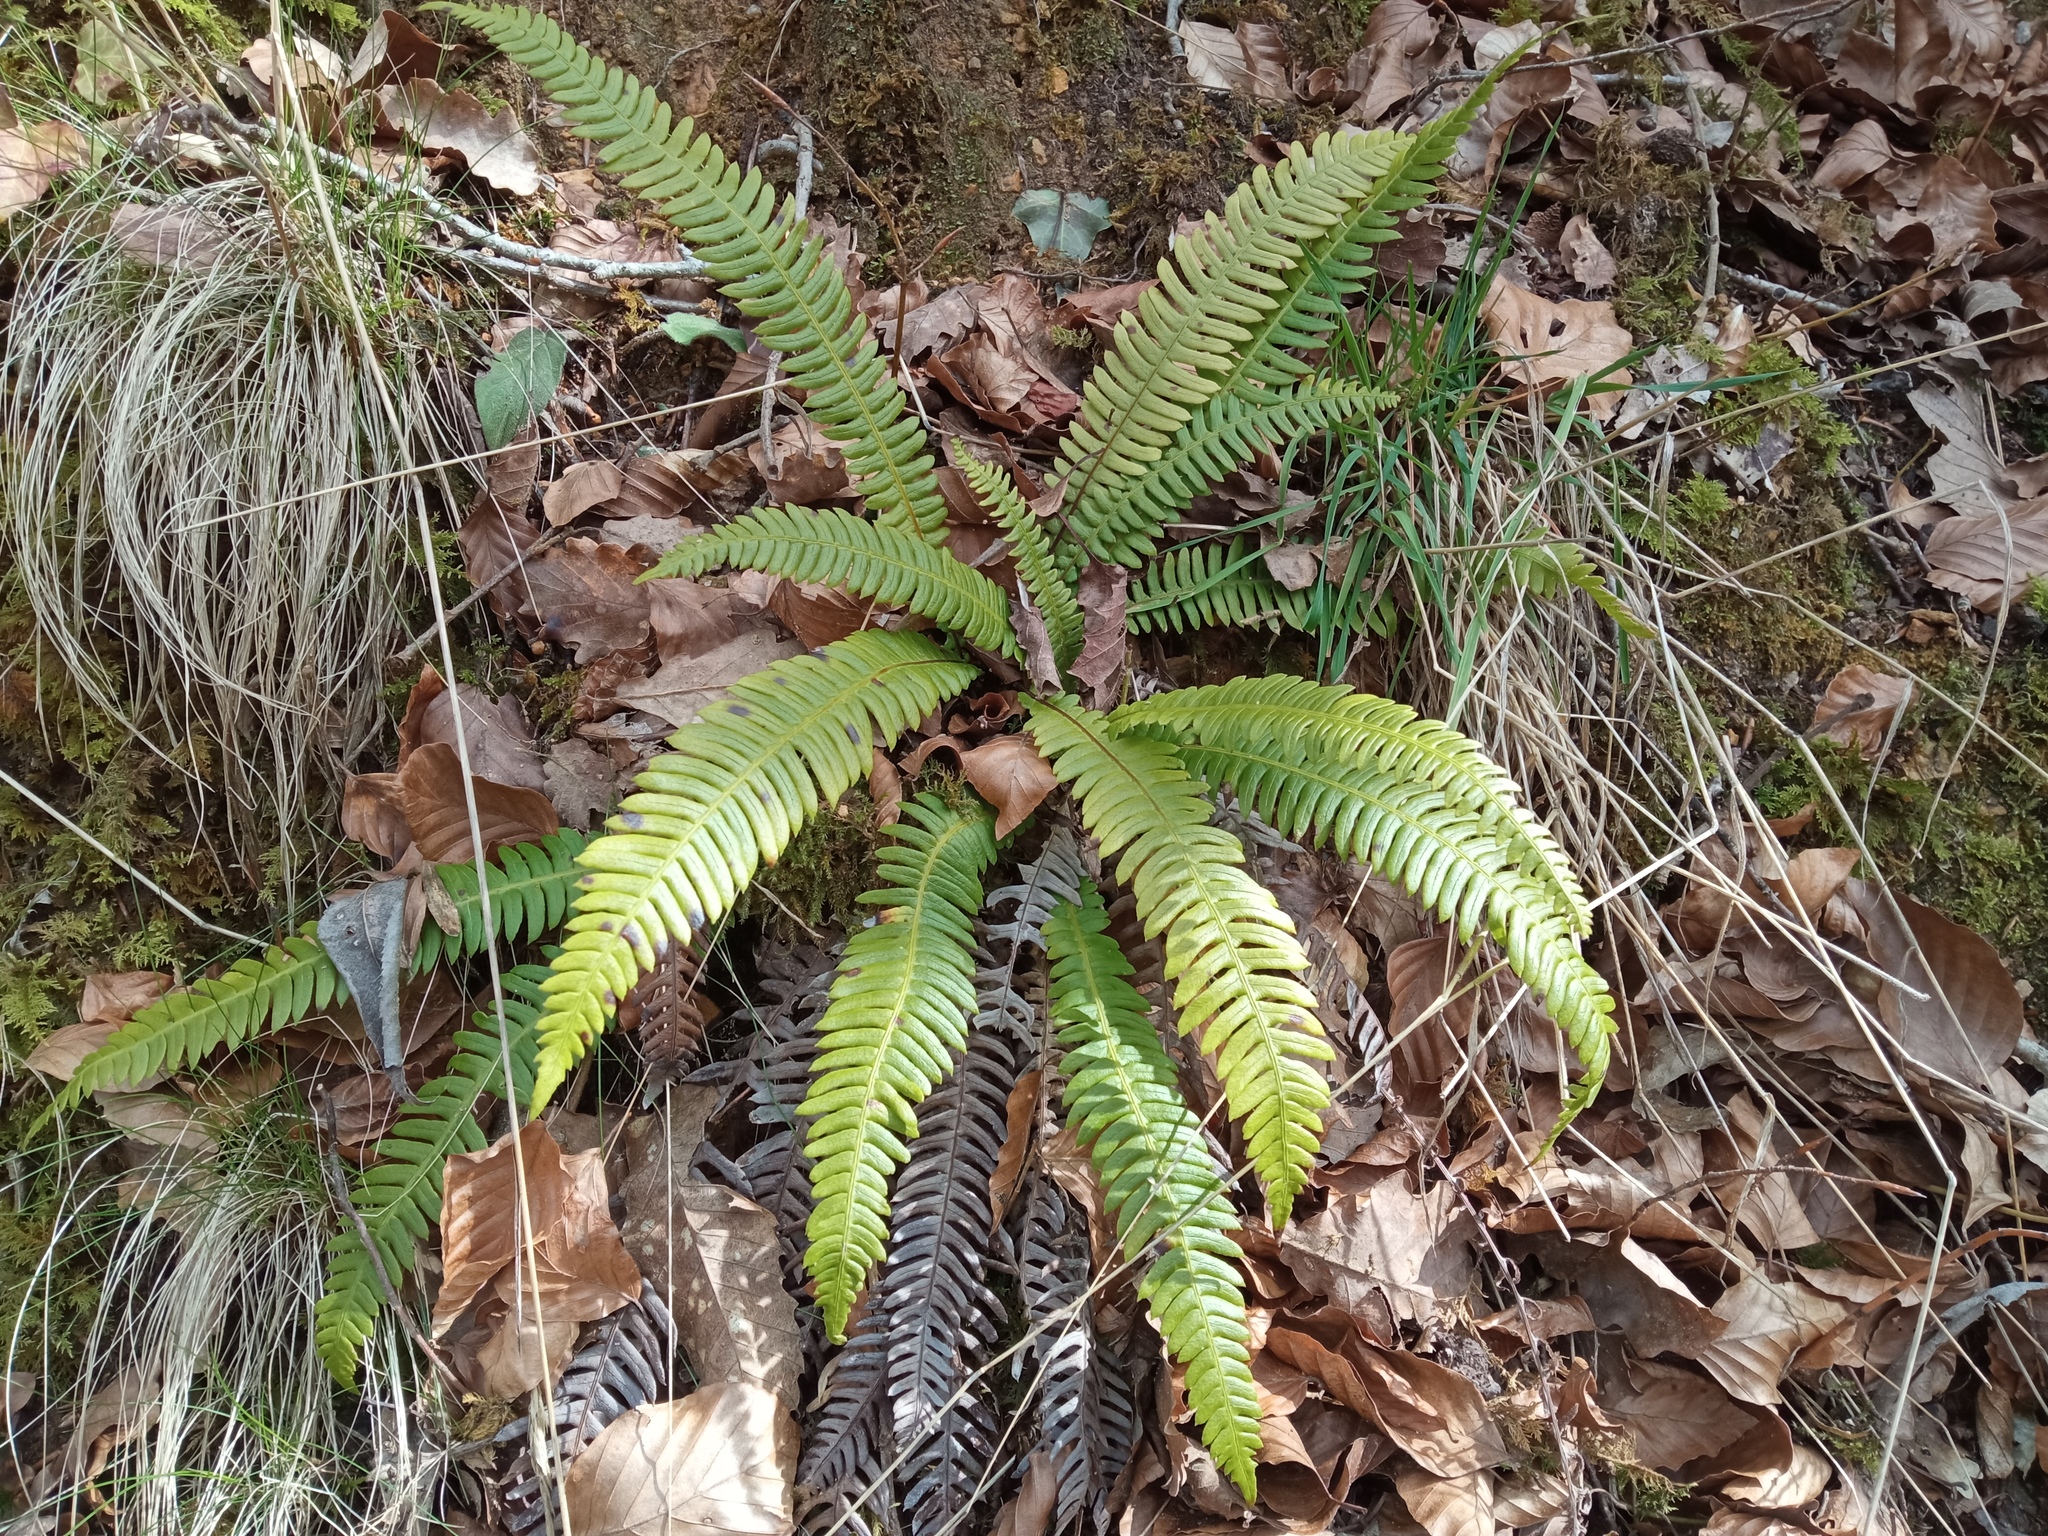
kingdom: Plantae
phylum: Tracheophyta
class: Polypodiopsida
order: Polypodiales
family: Blechnaceae
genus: Struthiopteris
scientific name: Struthiopteris spicant
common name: Deer fern
